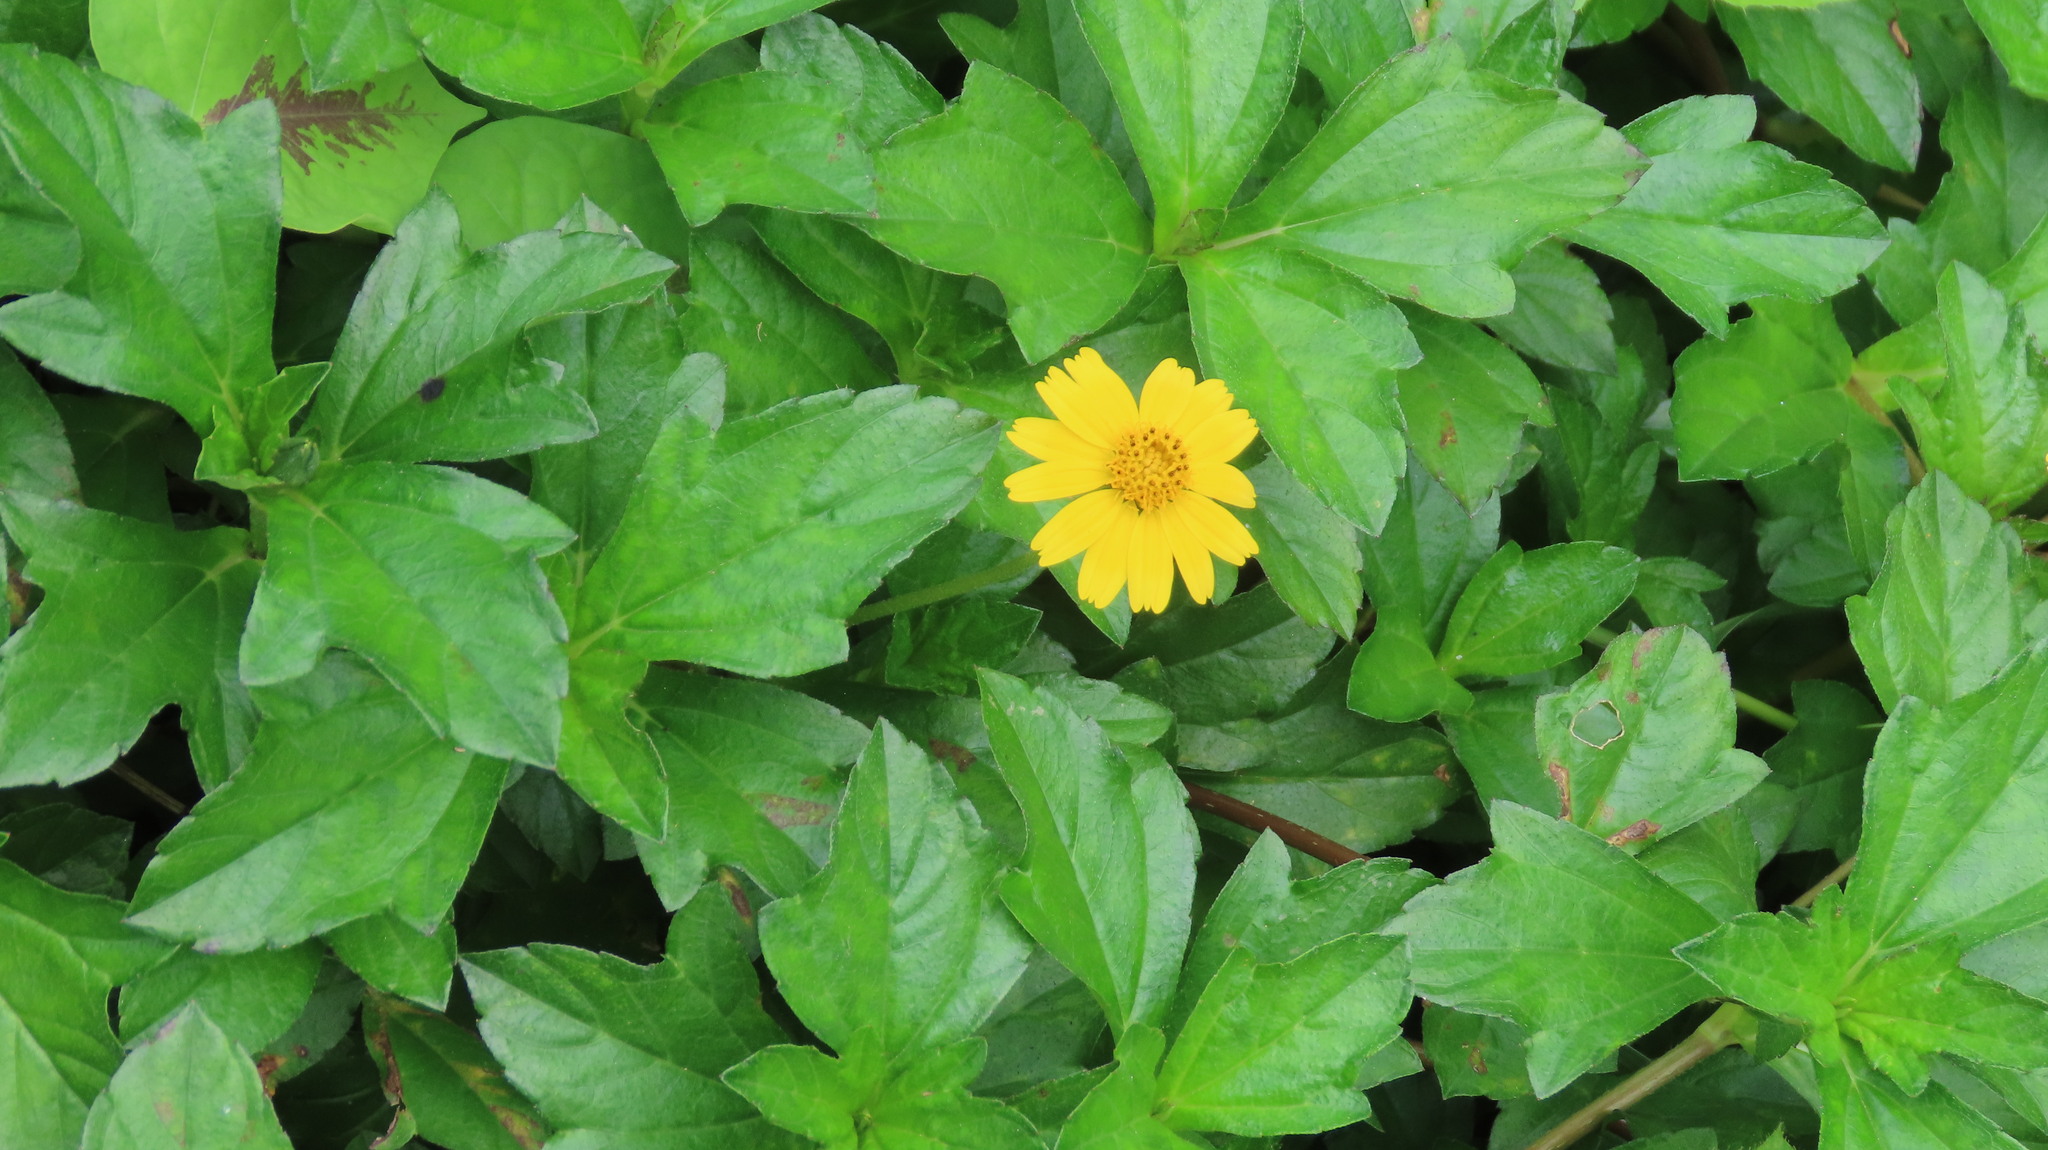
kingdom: Plantae
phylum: Tracheophyta
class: Magnoliopsida
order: Asterales
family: Asteraceae
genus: Sphagneticola
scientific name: Sphagneticola trilobata
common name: Bay biscayne creeping-oxeye
